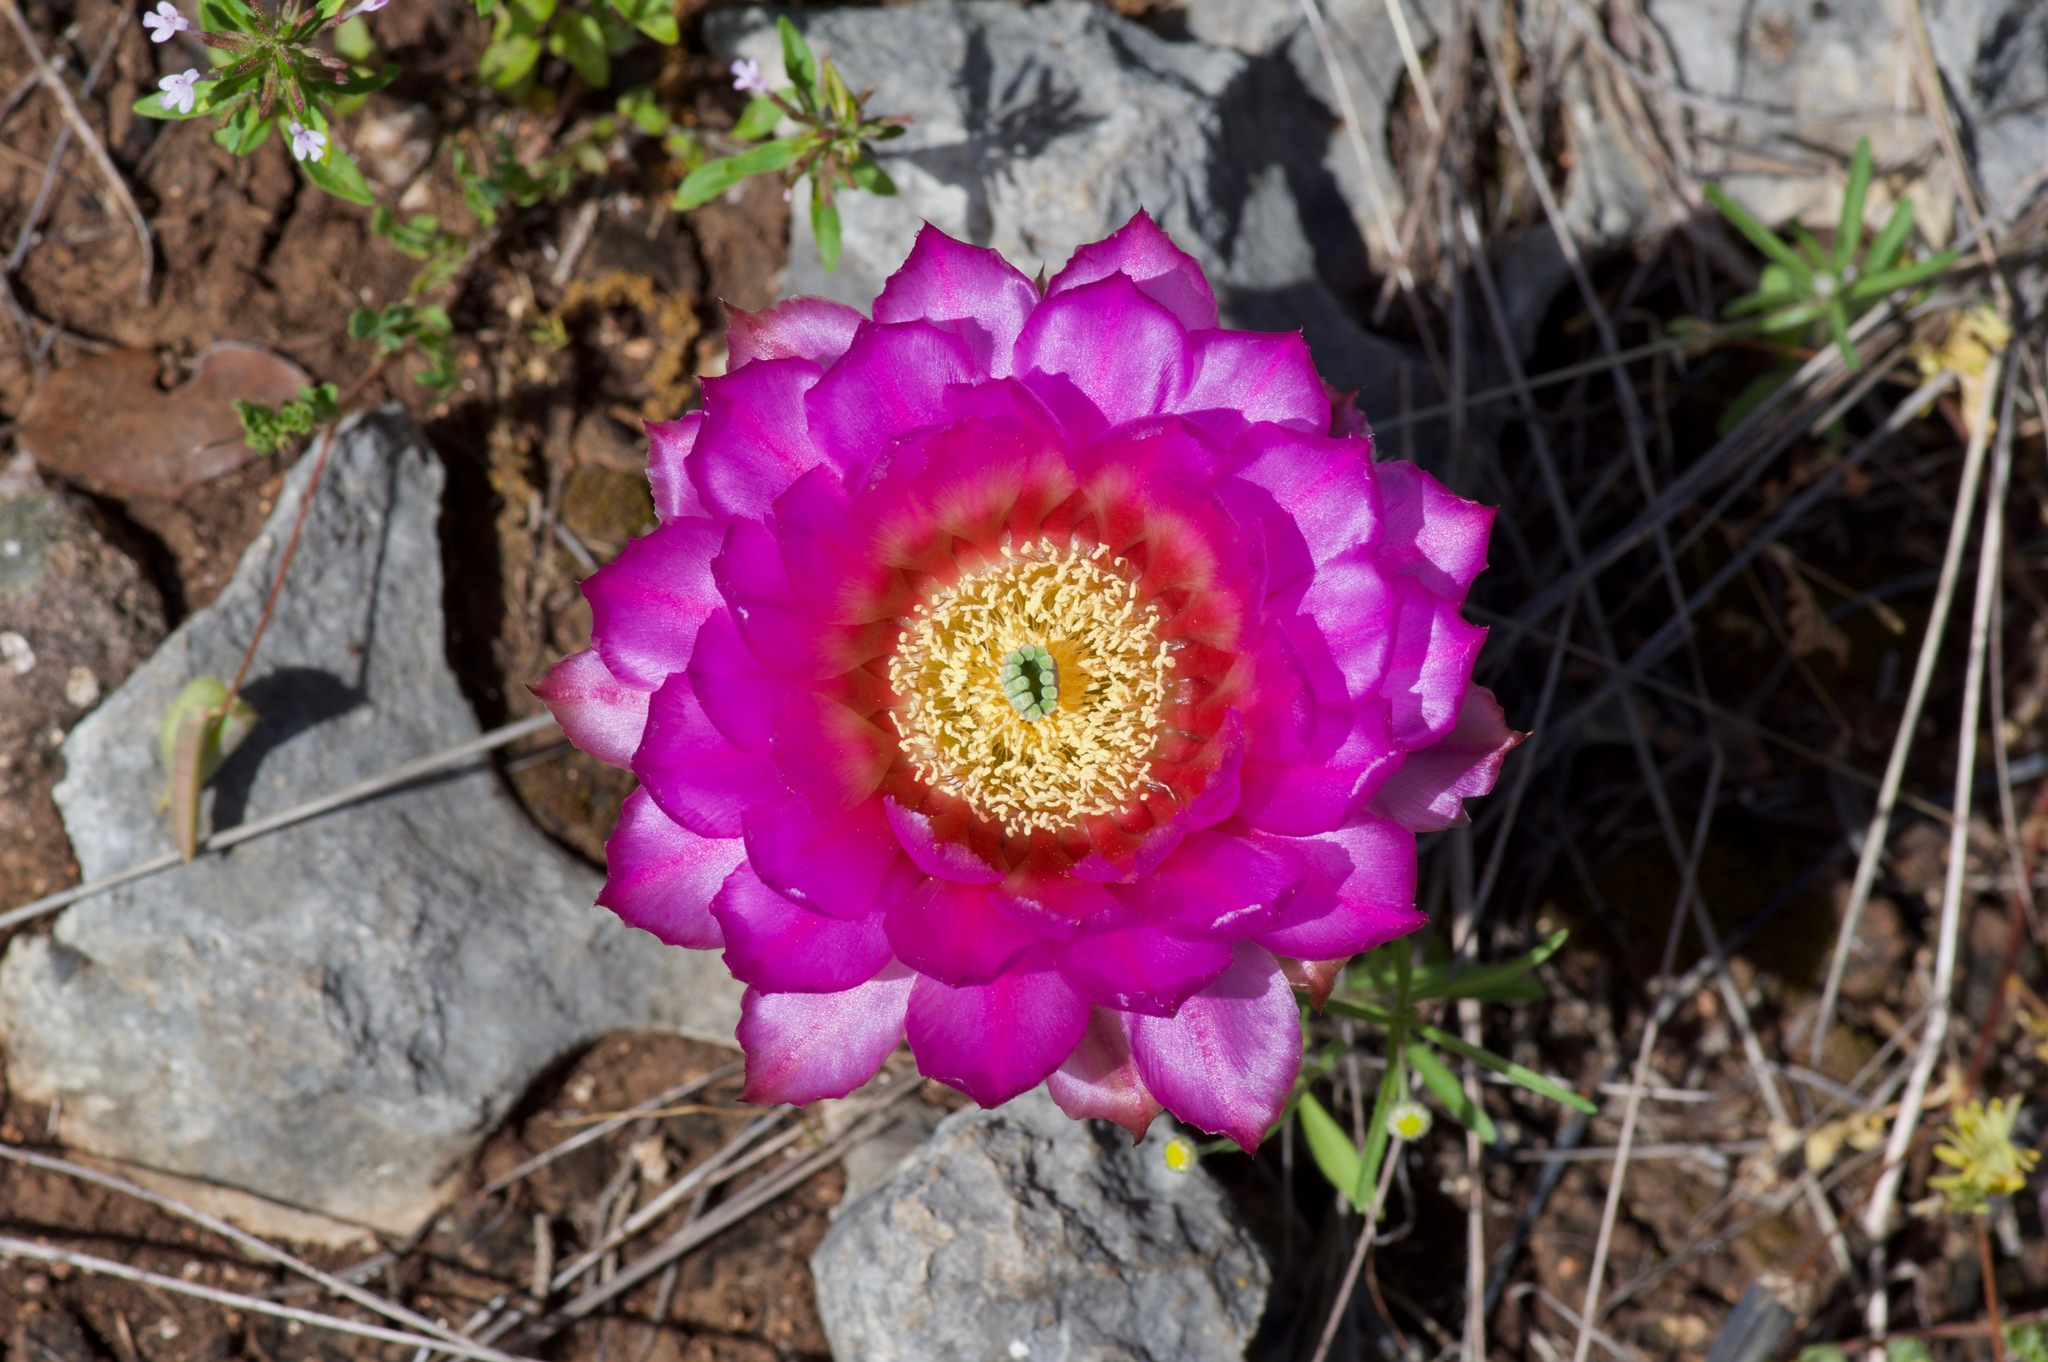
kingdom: Plantae
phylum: Tracheophyta
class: Magnoliopsida
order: Caryophyllales
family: Cactaceae
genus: Echinocereus
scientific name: Echinocereus reichenbachii
